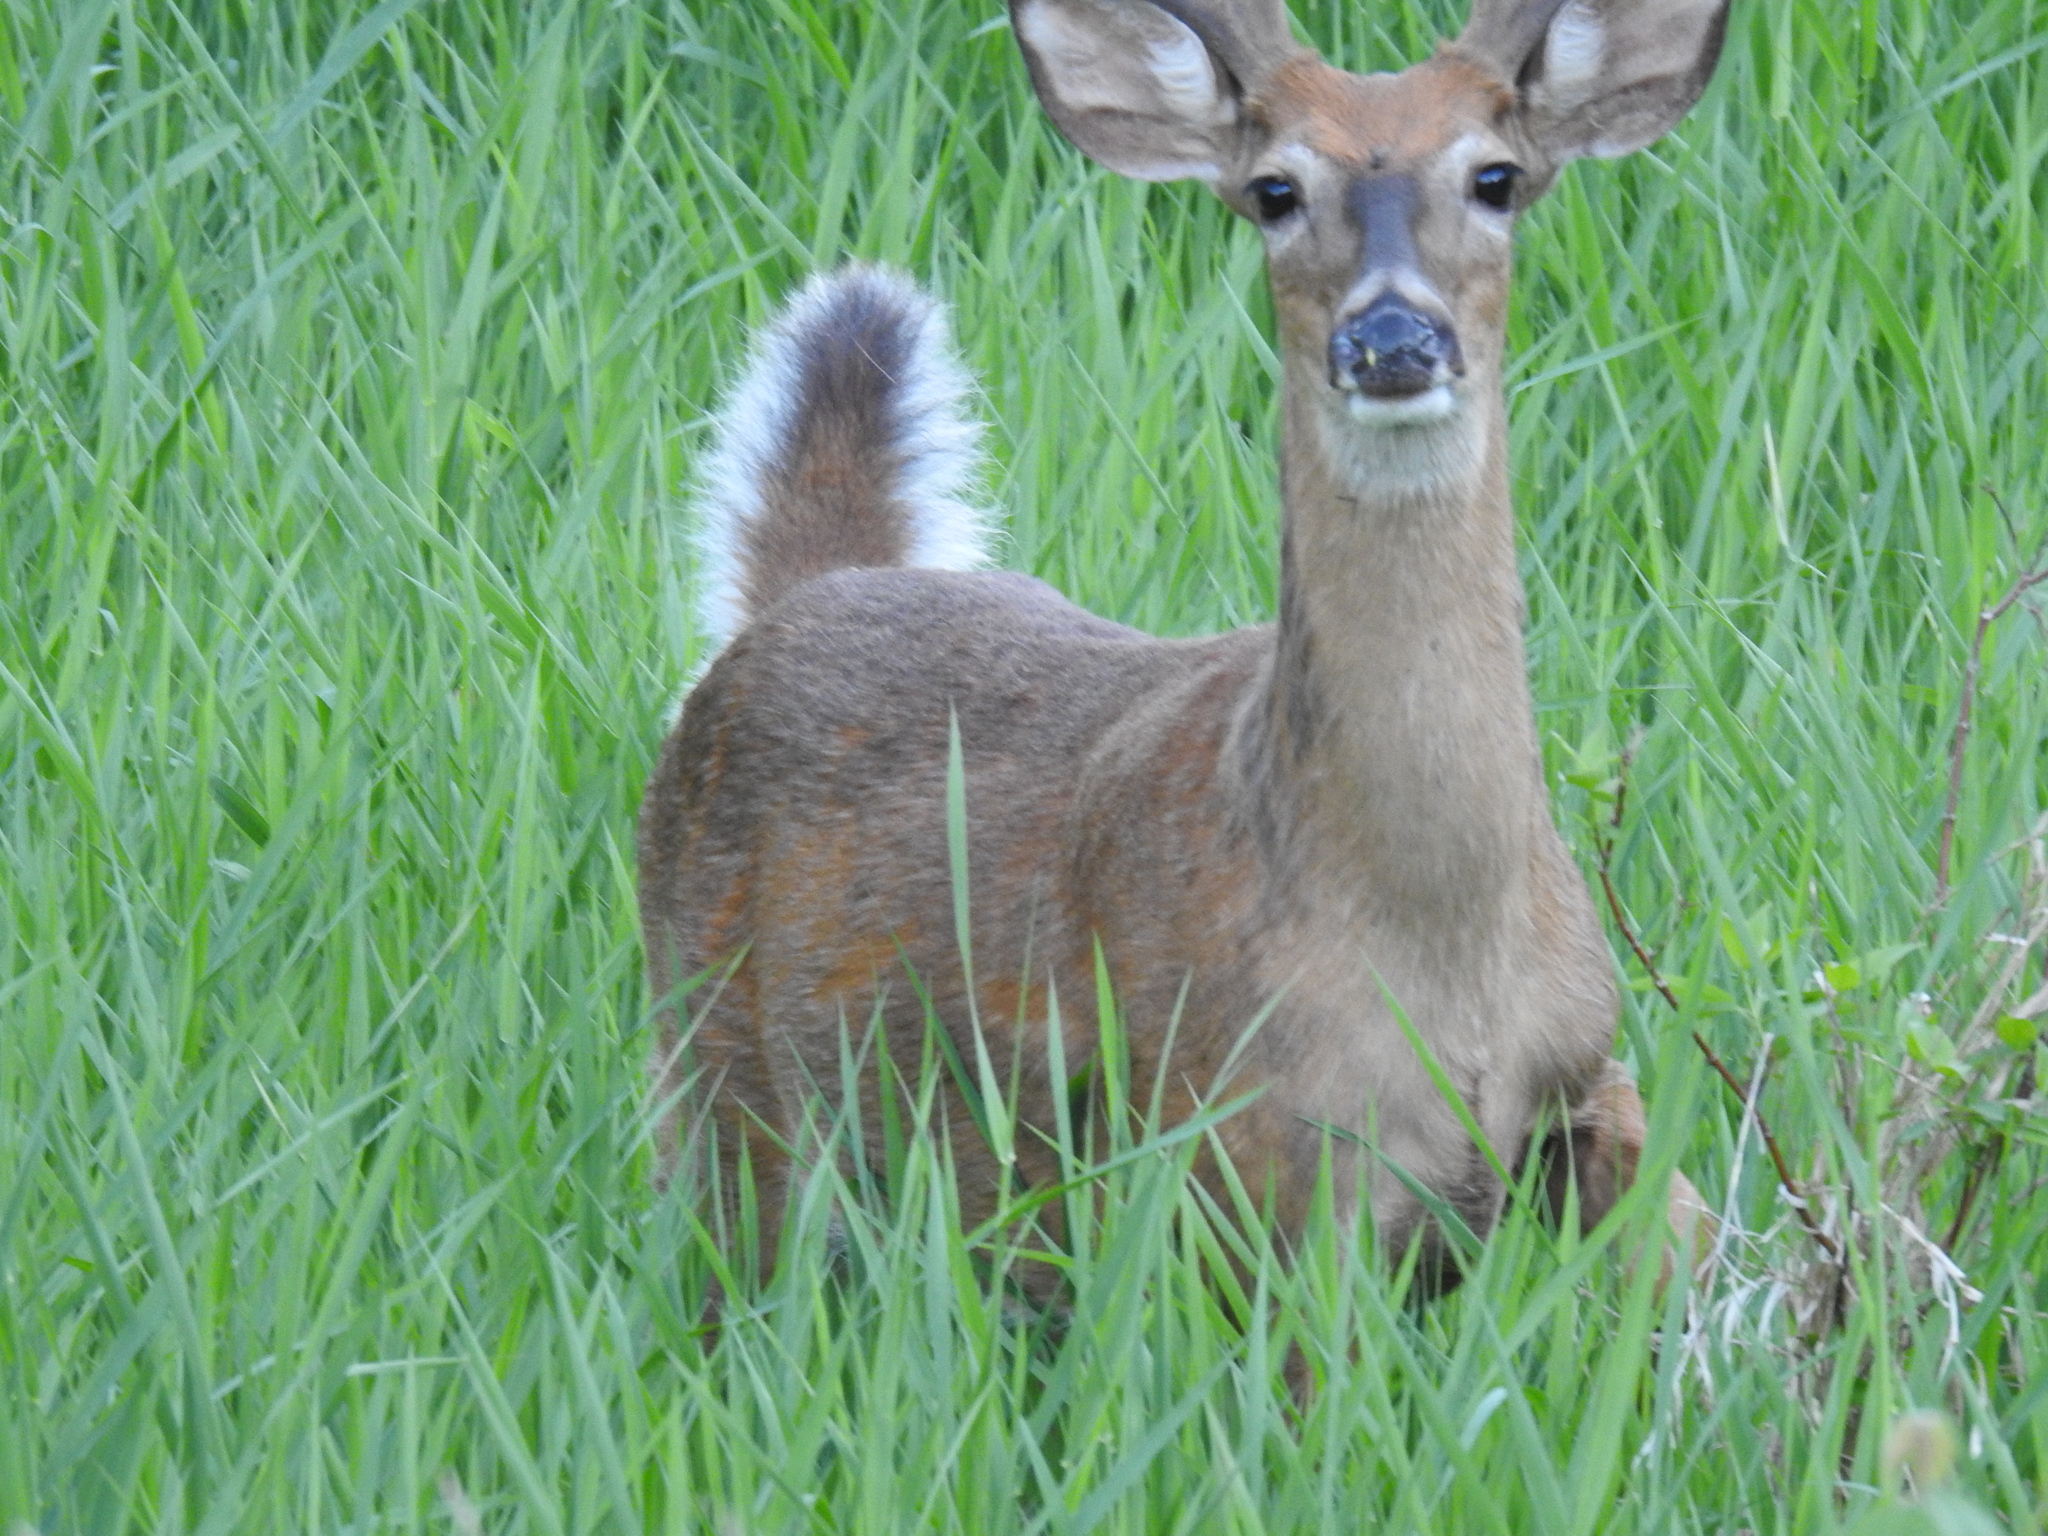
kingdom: Animalia
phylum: Chordata
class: Mammalia
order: Artiodactyla
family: Cervidae
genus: Odocoileus
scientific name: Odocoileus virginianus
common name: White-tailed deer
